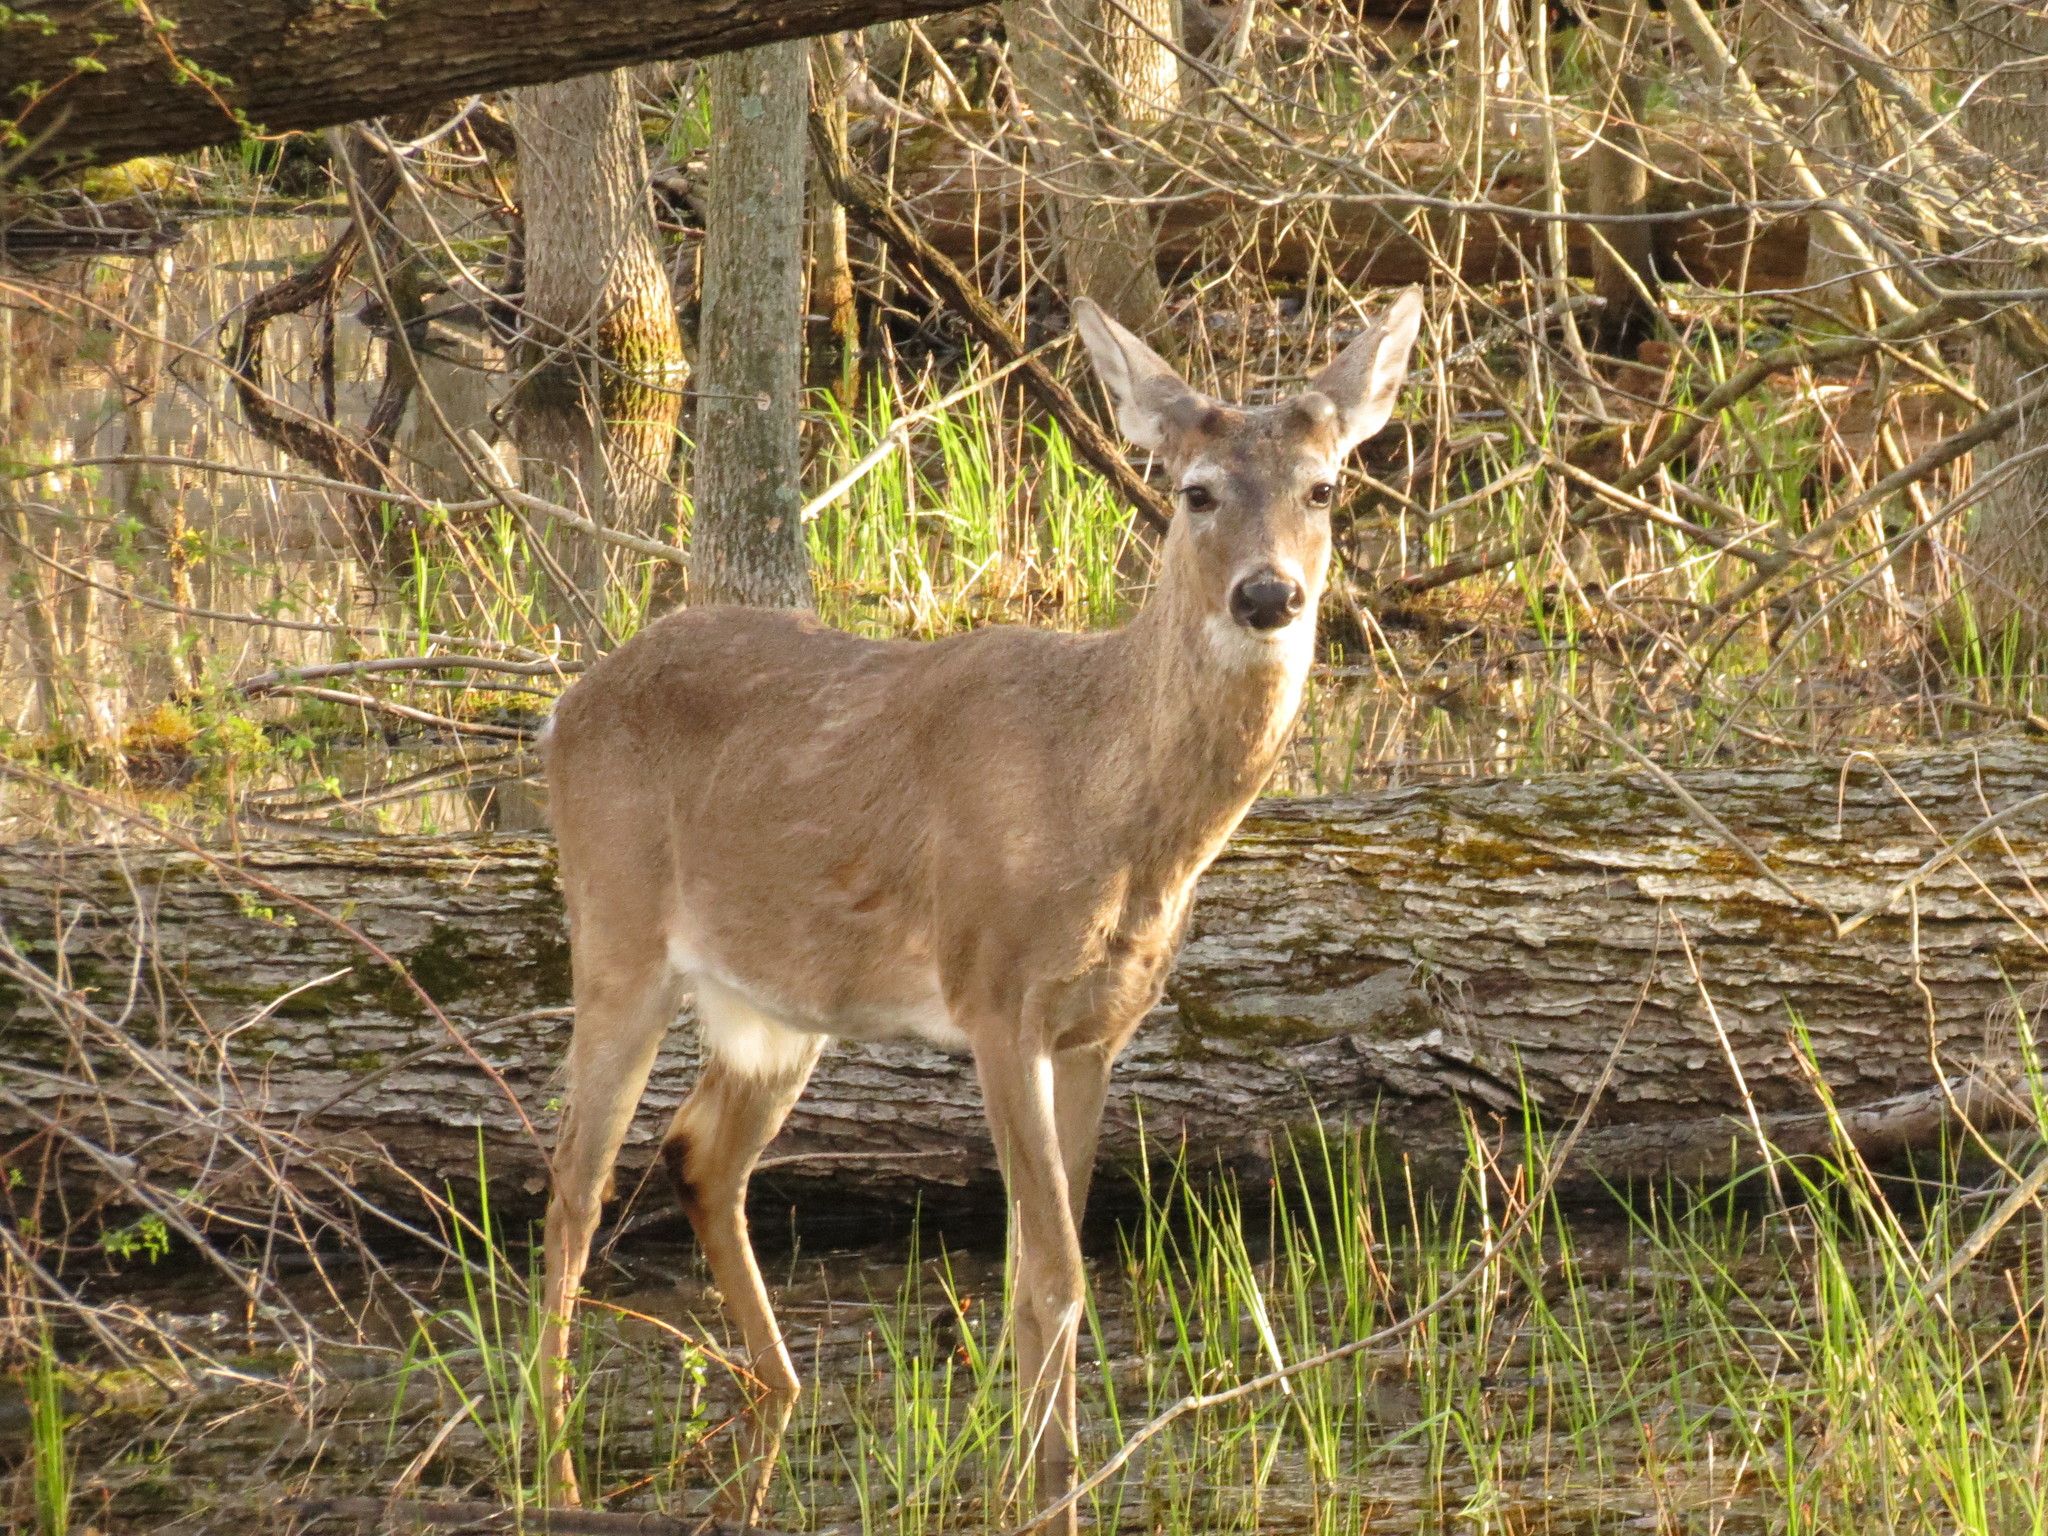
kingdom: Animalia
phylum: Chordata
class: Mammalia
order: Artiodactyla
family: Cervidae
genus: Odocoileus
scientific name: Odocoileus virginianus
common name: White-tailed deer
